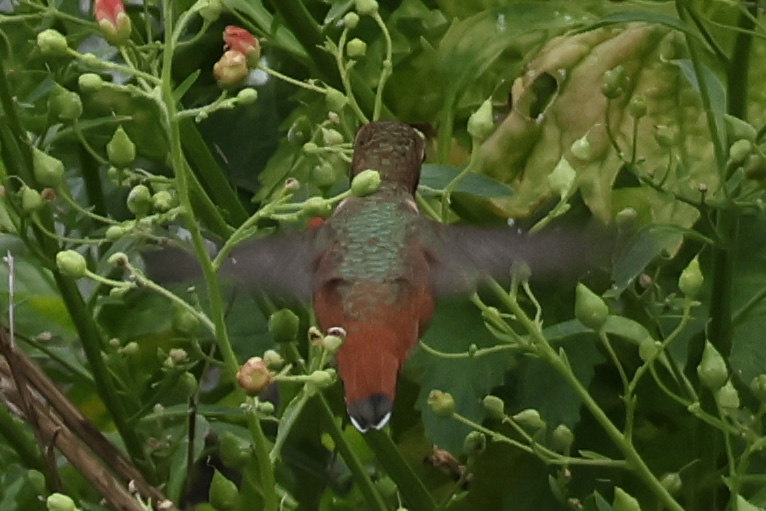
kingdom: Animalia
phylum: Chordata
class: Aves
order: Apodiformes
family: Trochilidae
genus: Selasphorus
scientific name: Selasphorus sasin
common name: Allen's hummingbird
